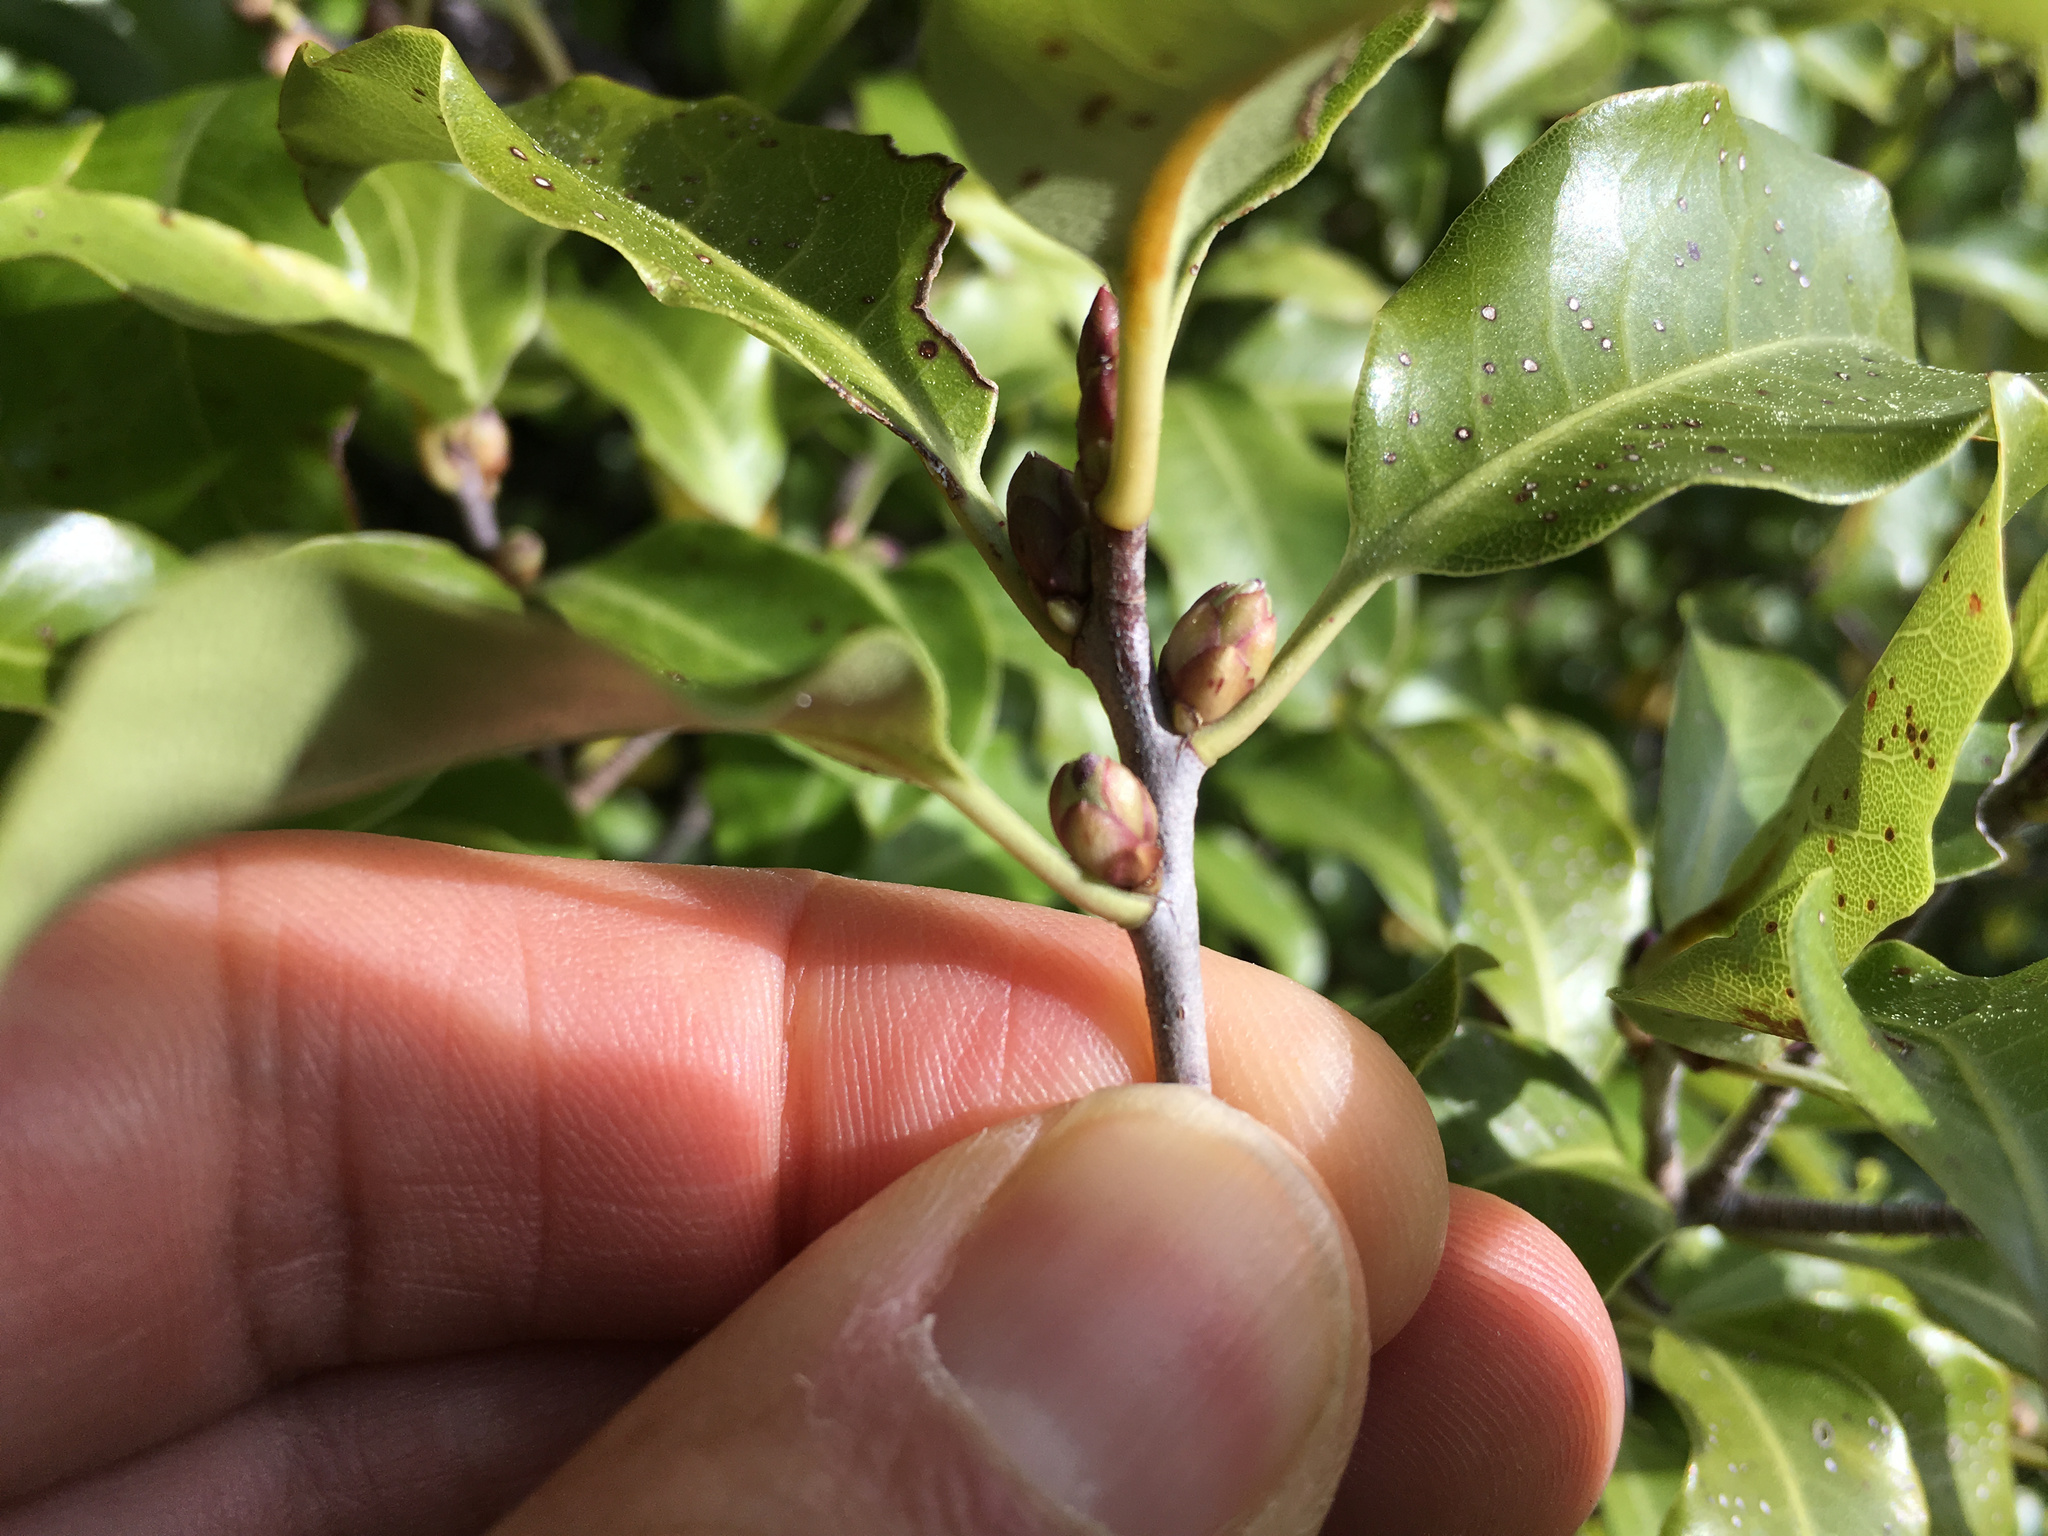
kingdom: Plantae
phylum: Tracheophyta
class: Magnoliopsida
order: Apiales
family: Pittosporaceae
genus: Pittosporum
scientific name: Pittosporum tenuifolium
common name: Kohuhu
